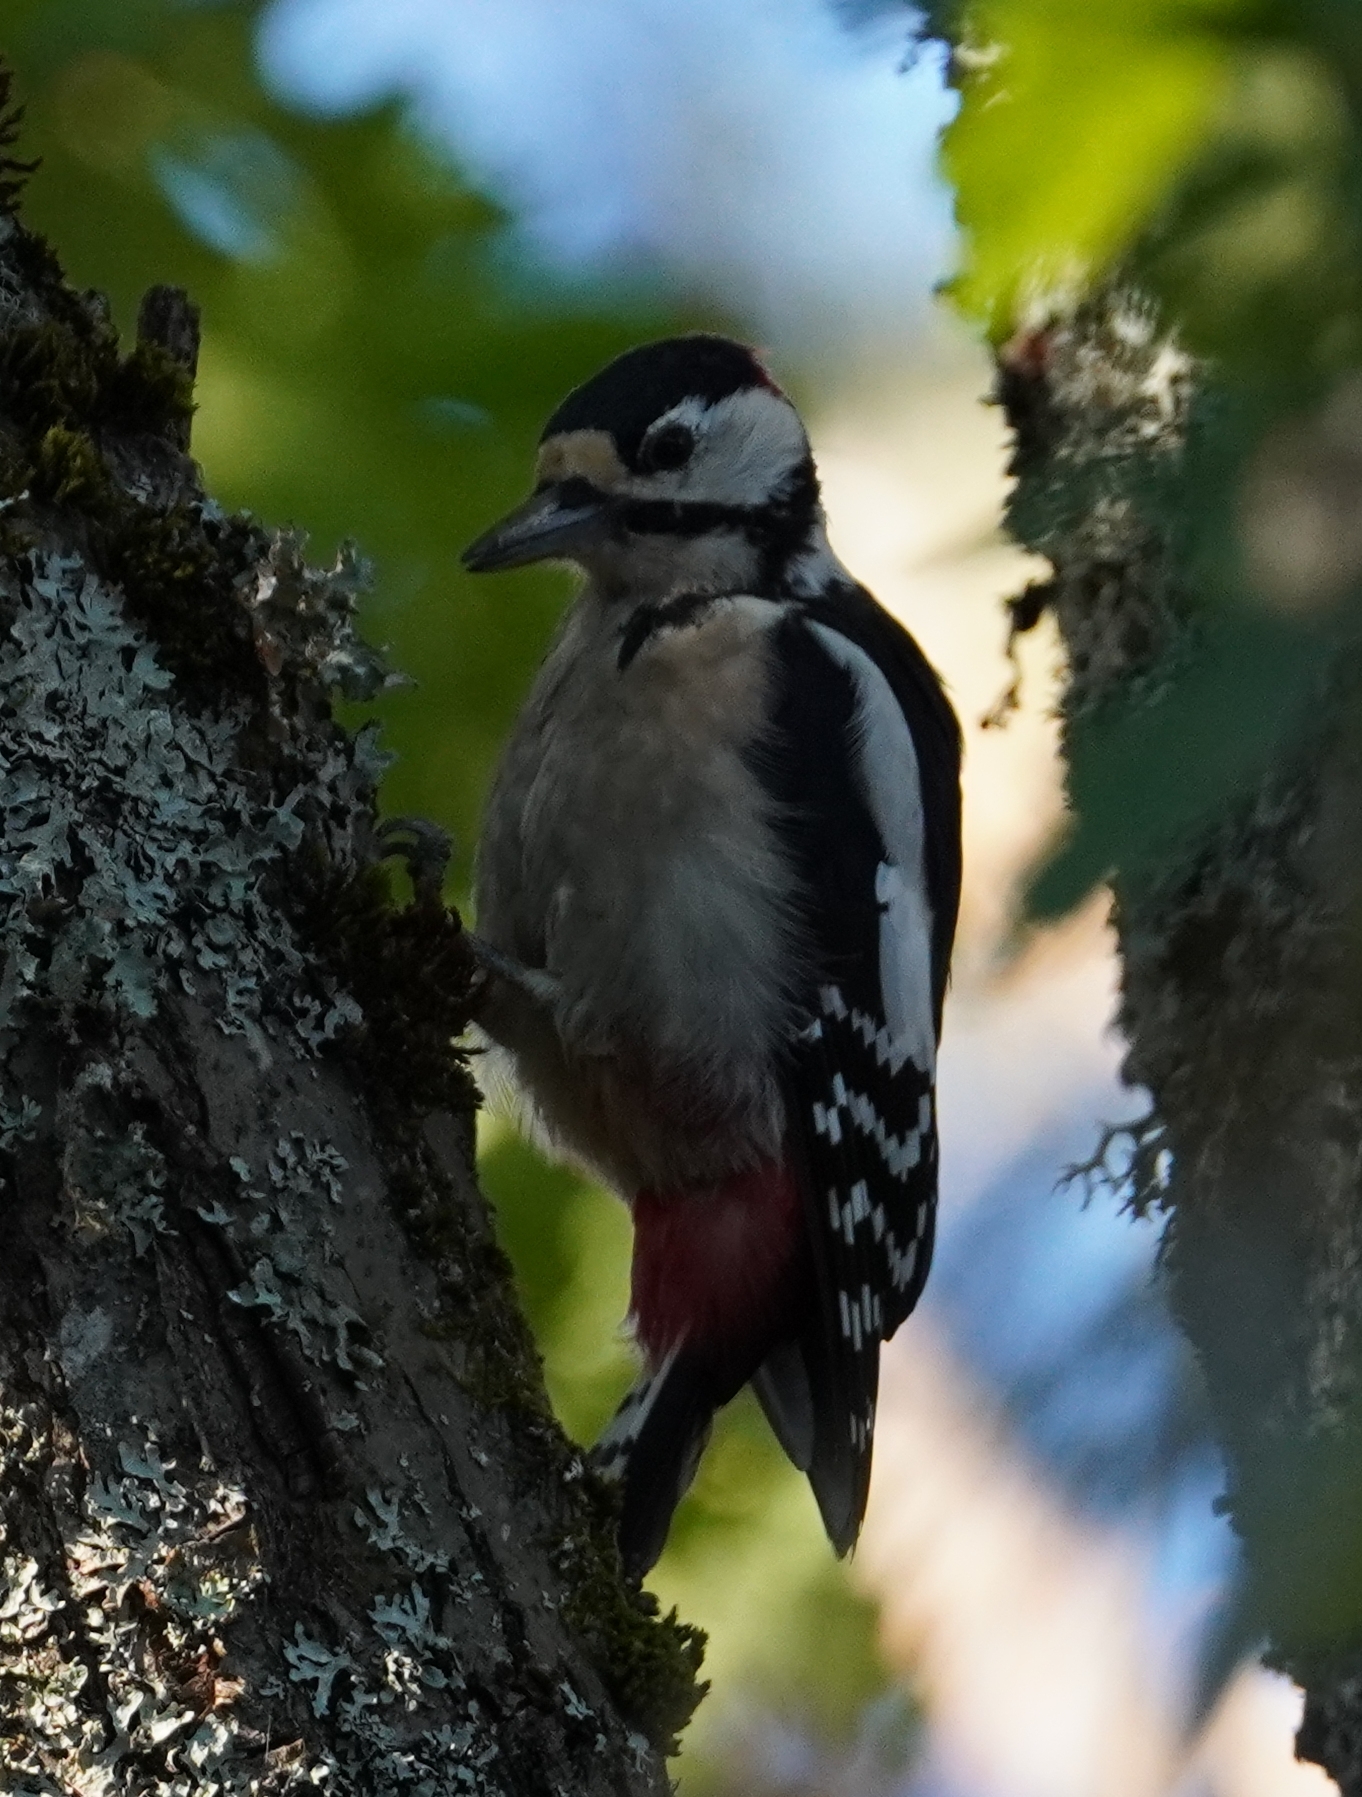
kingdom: Animalia
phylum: Chordata
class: Aves
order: Piciformes
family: Picidae
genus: Dendrocopos
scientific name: Dendrocopos major
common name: Great spotted woodpecker
